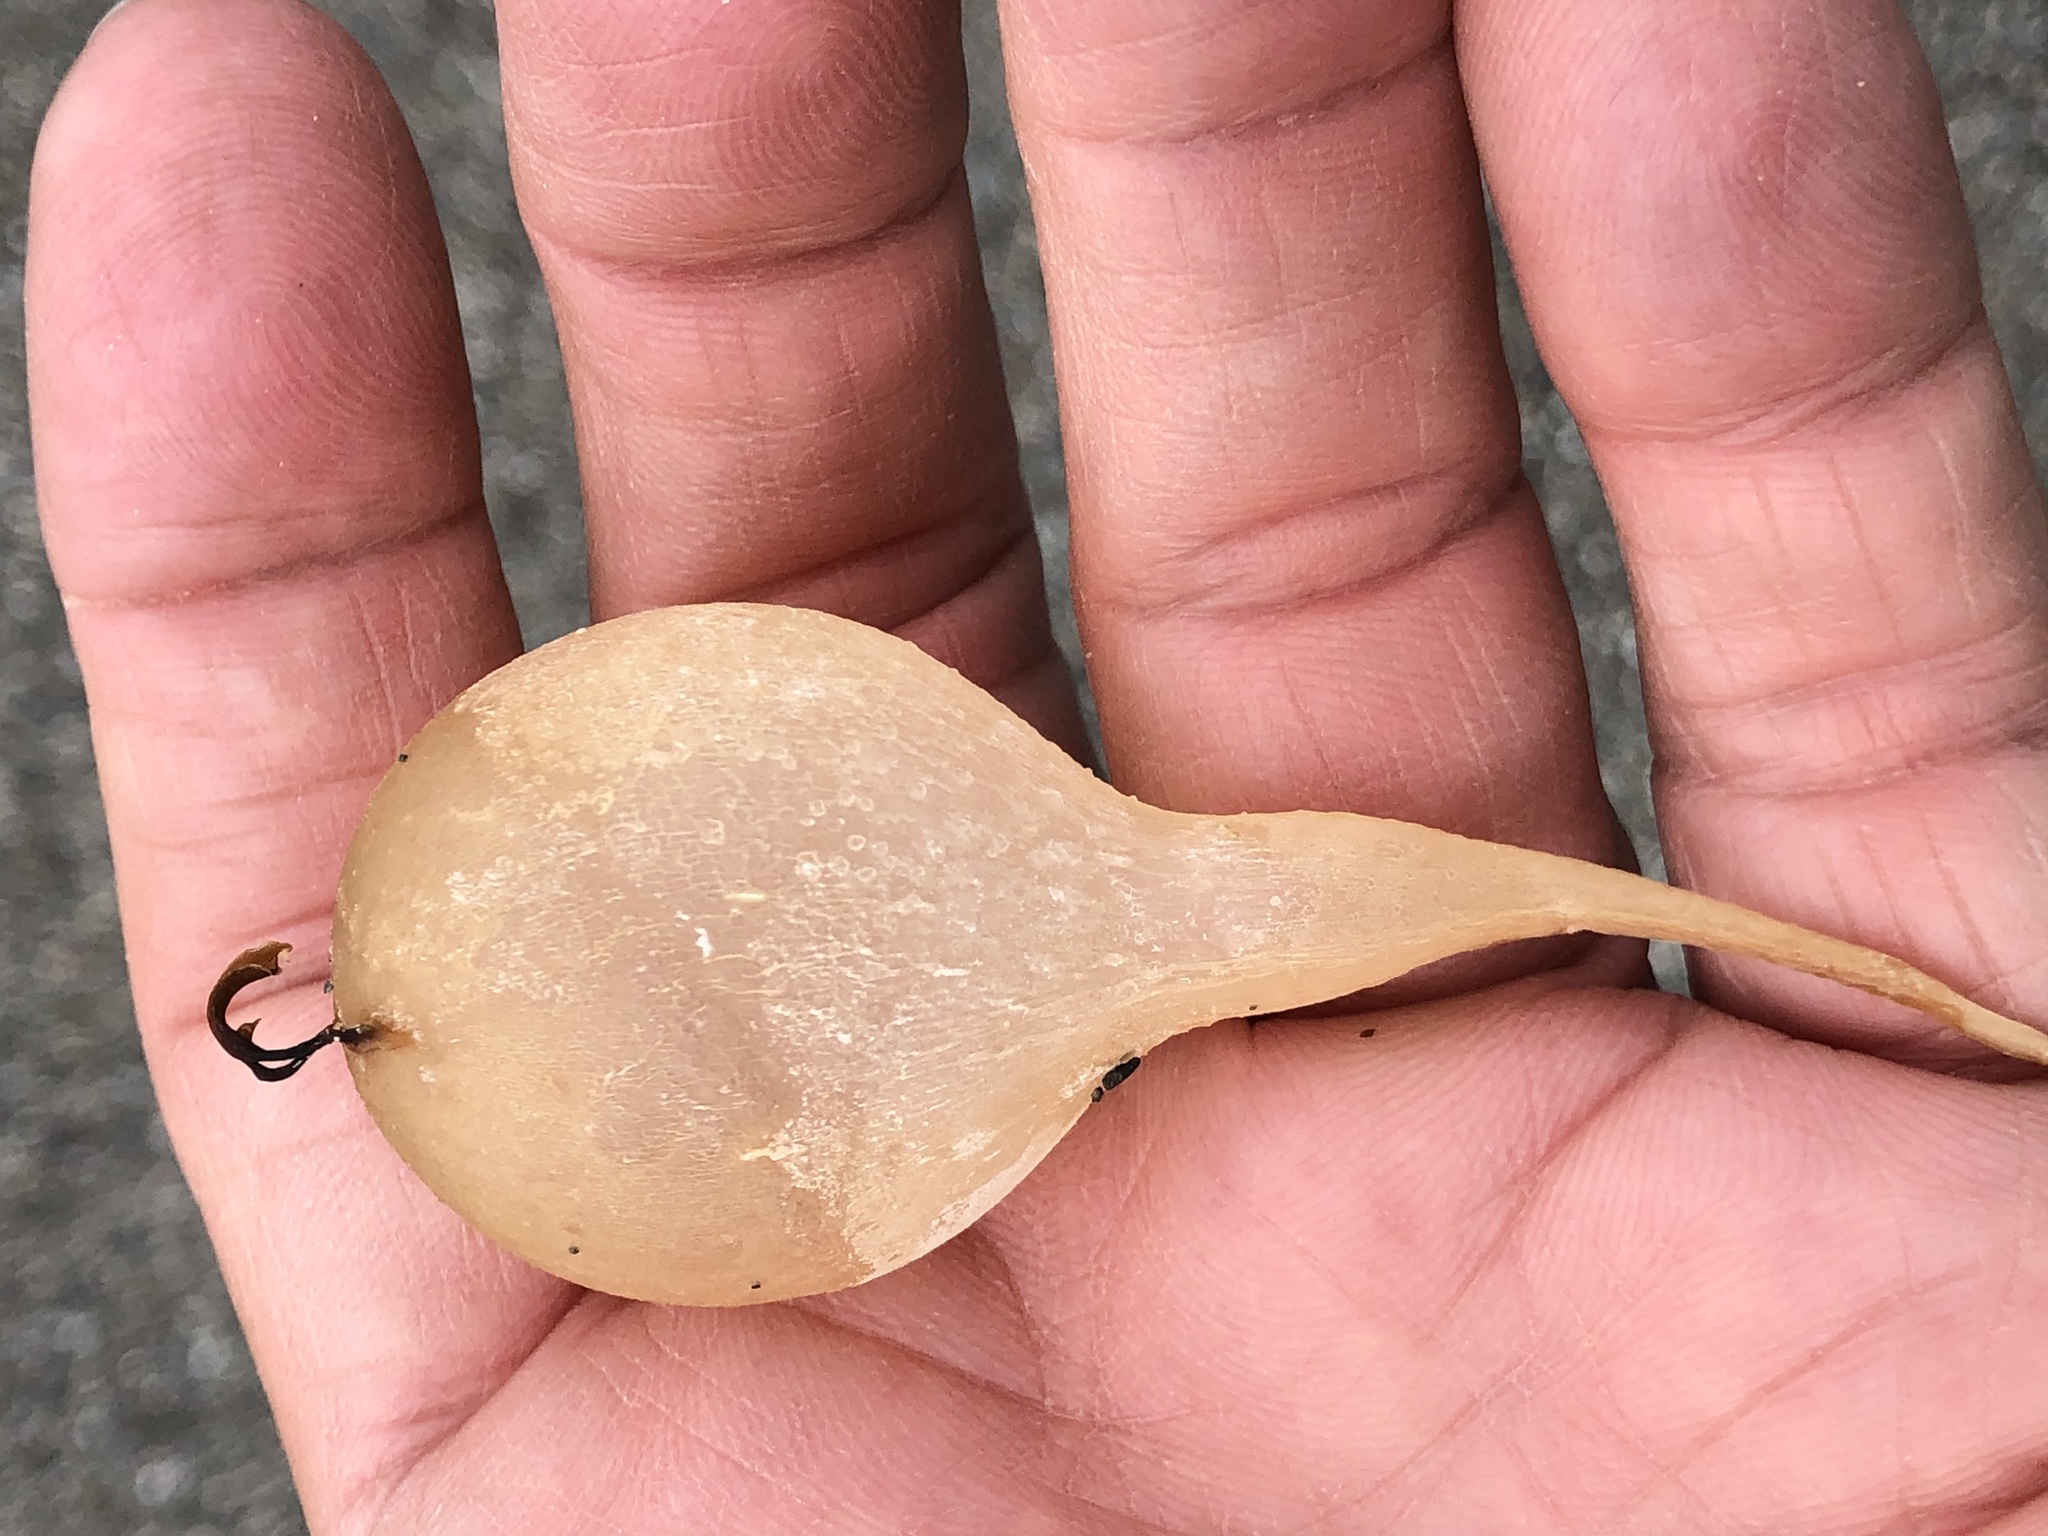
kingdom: Chromista
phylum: Ochrophyta
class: Phaeophyceae
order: Laminariales
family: Laminariaceae
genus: Nereocystis
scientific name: Nereocystis luetkeana
